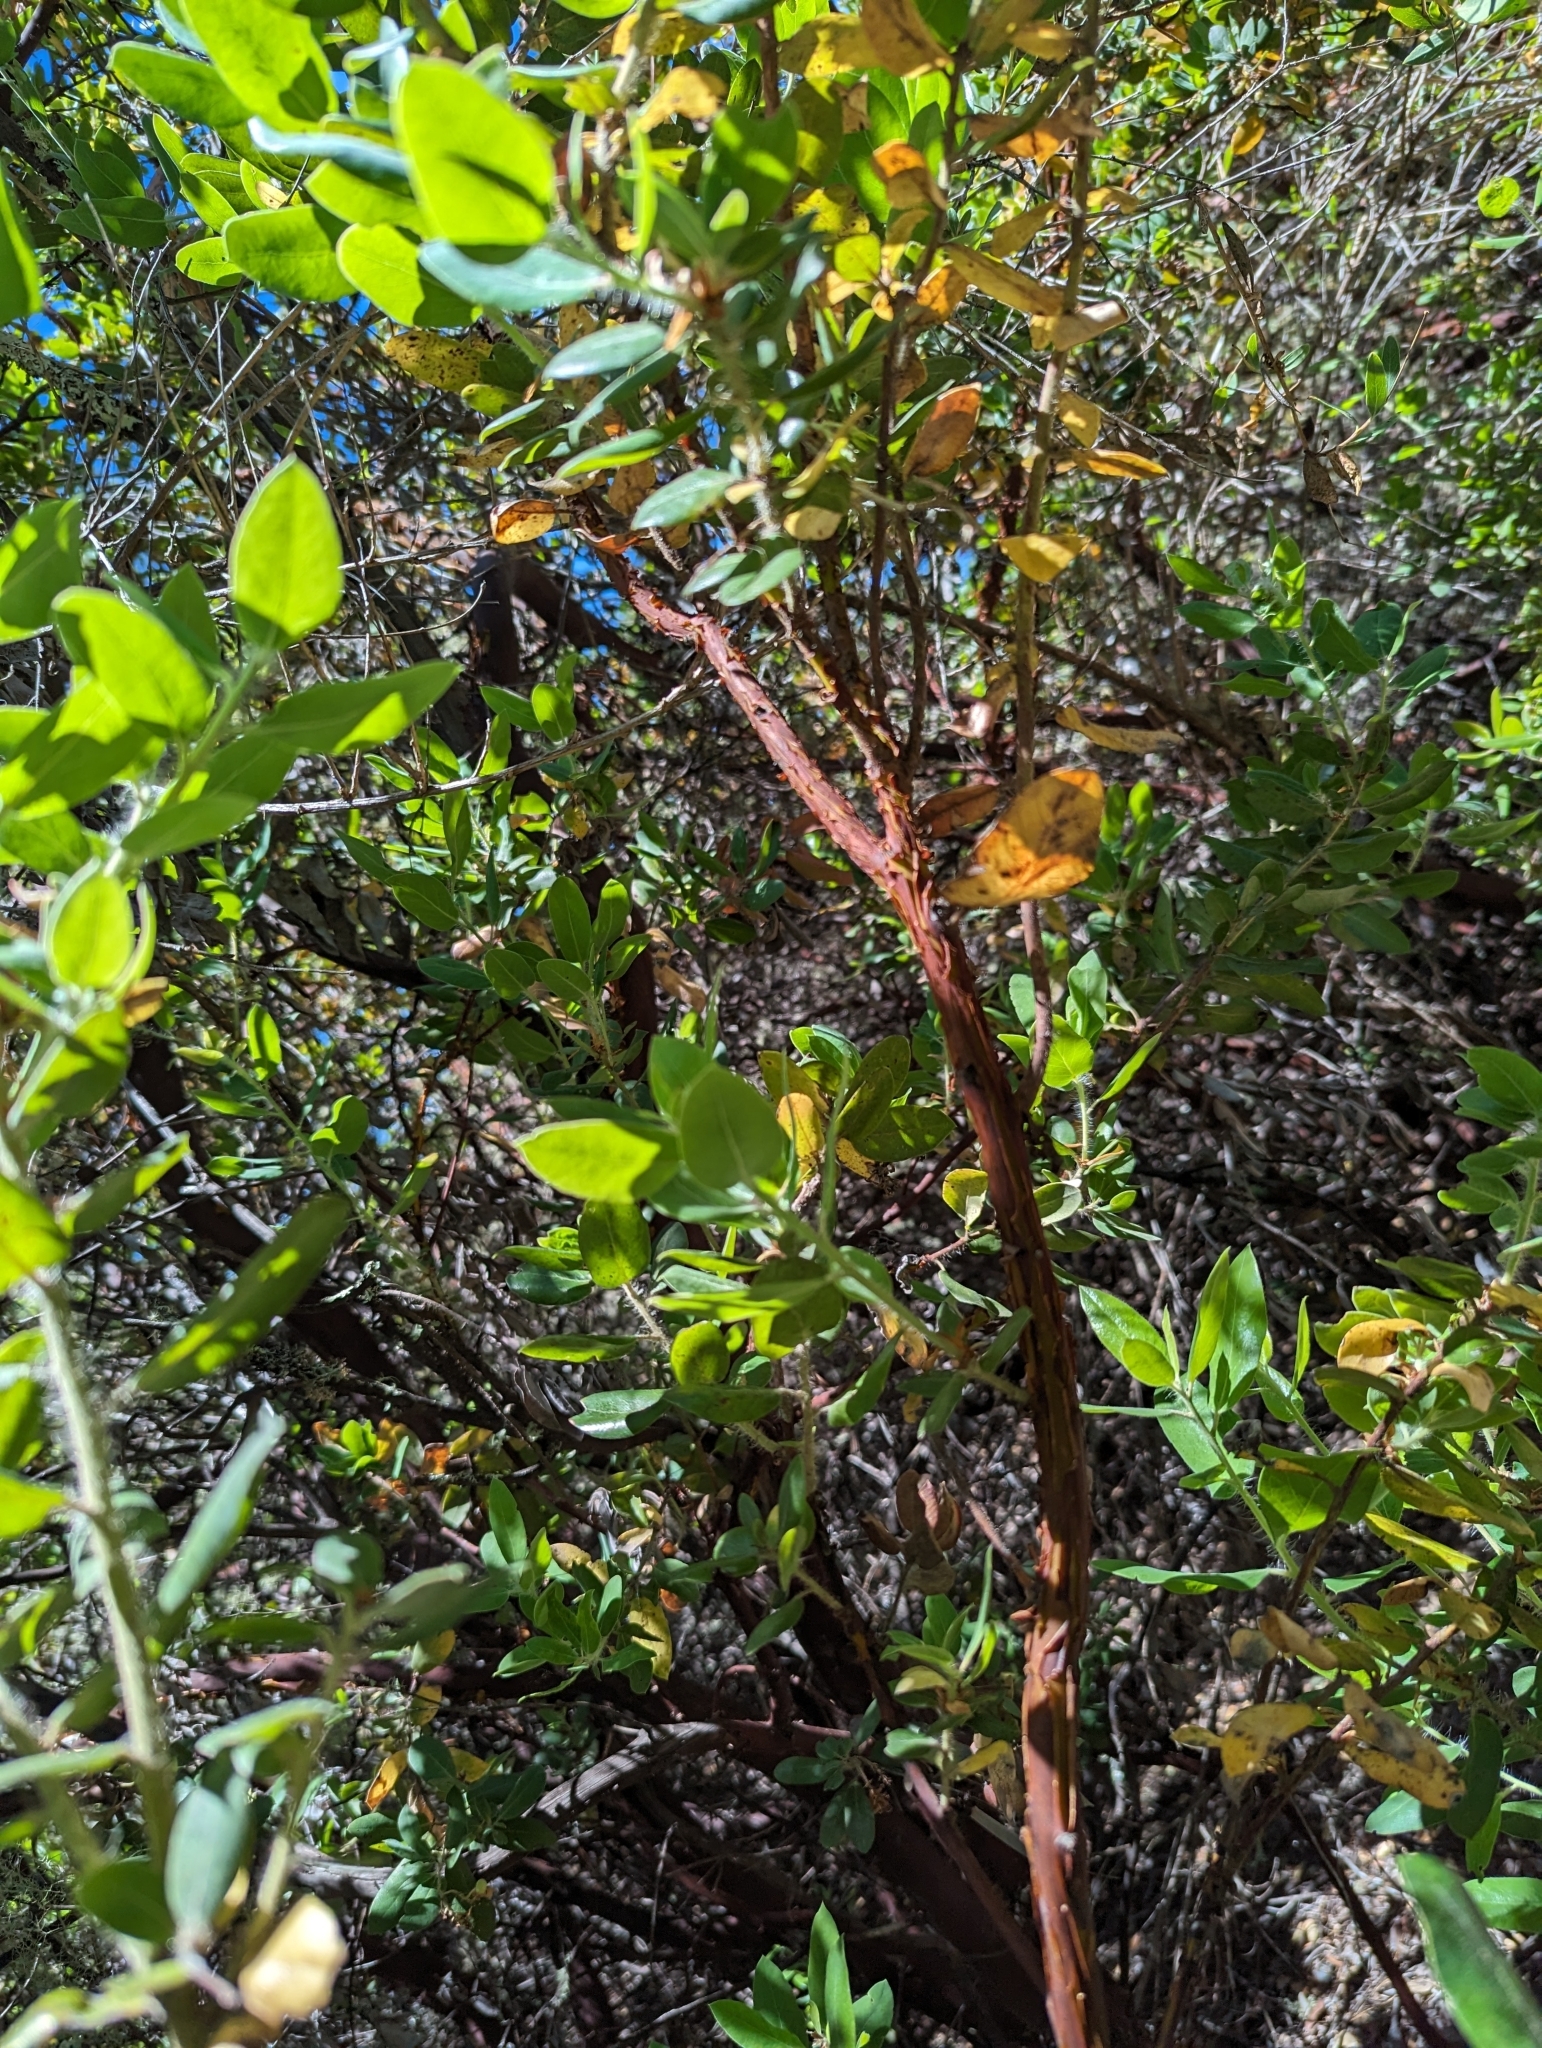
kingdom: Plantae
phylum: Tracheophyta
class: Magnoliopsida
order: Ericales
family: Ericaceae
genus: Arctostaphylos
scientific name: Arctostaphylos crustacea
